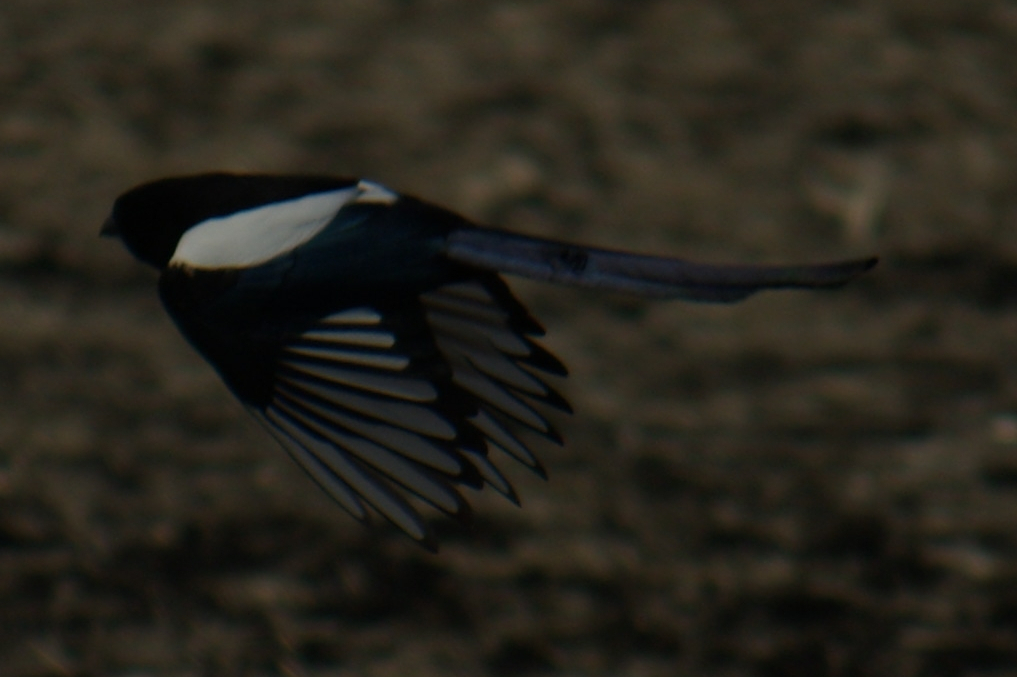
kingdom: Animalia
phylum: Chordata
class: Aves
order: Passeriformes
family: Corvidae
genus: Pica
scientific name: Pica hudsonia
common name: Black-billed magpie
